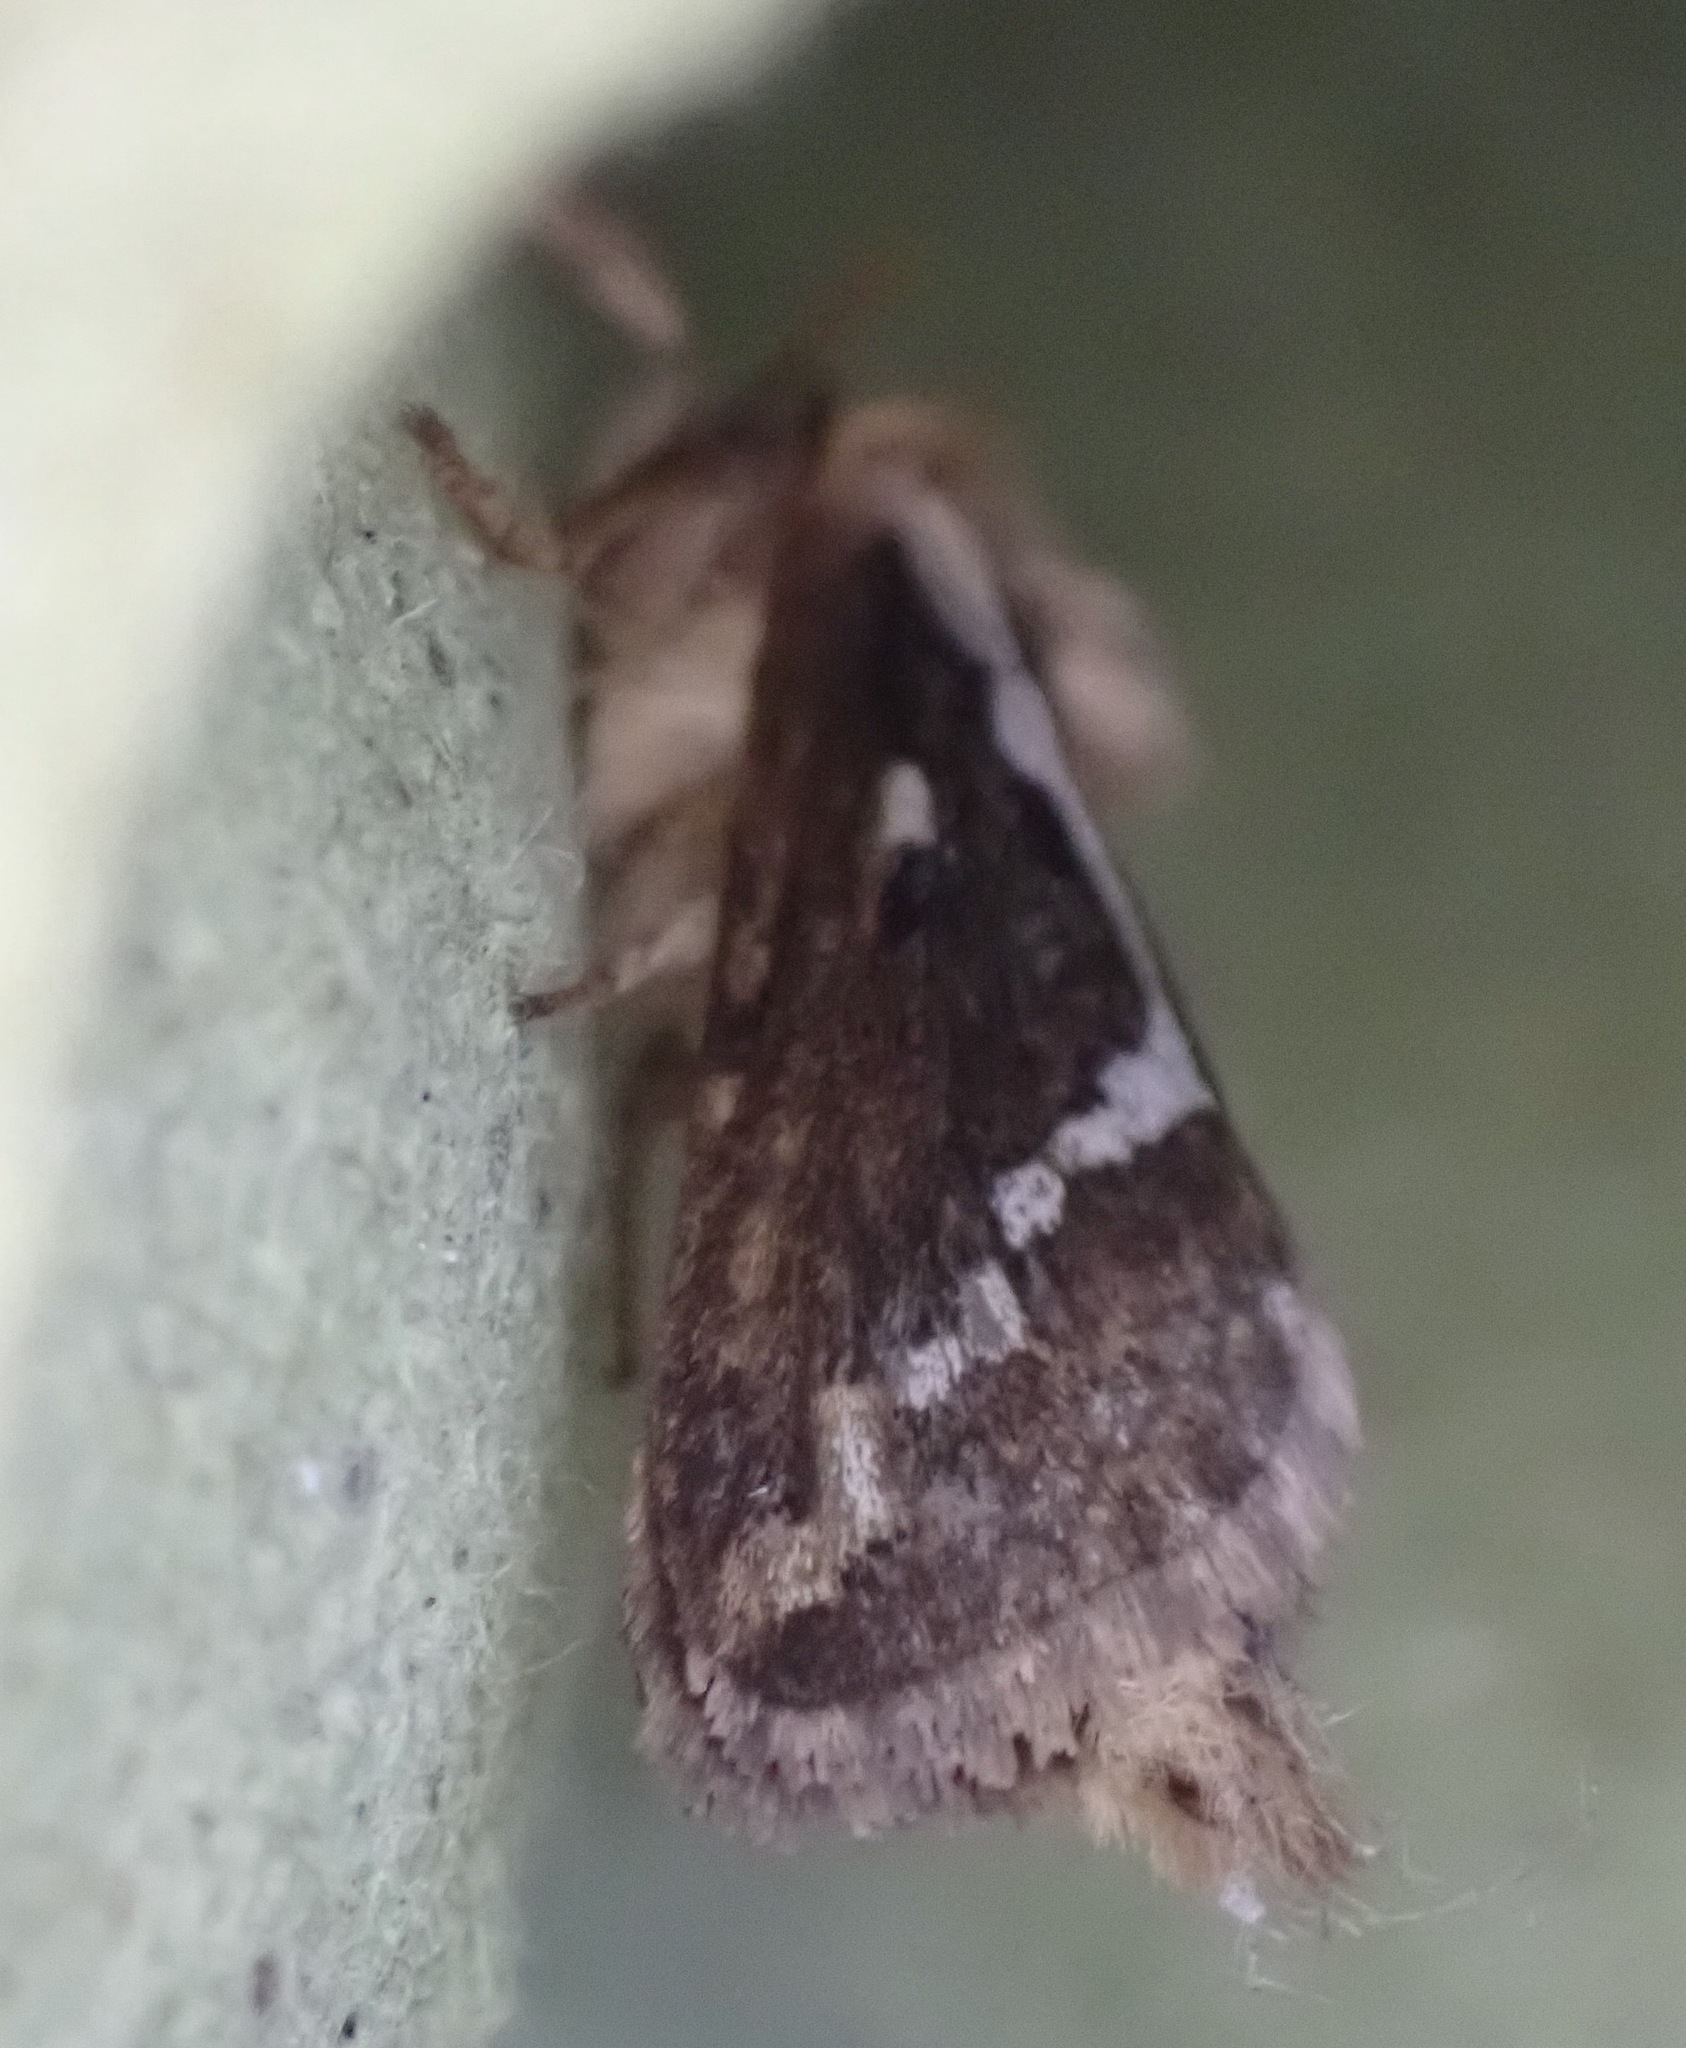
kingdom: Animalia
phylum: Arthropoda
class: Insecta
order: Lepidoptera
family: Hepialidae
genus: Korscheltellus
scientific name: Korscheltellus lupulina
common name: Common swift
